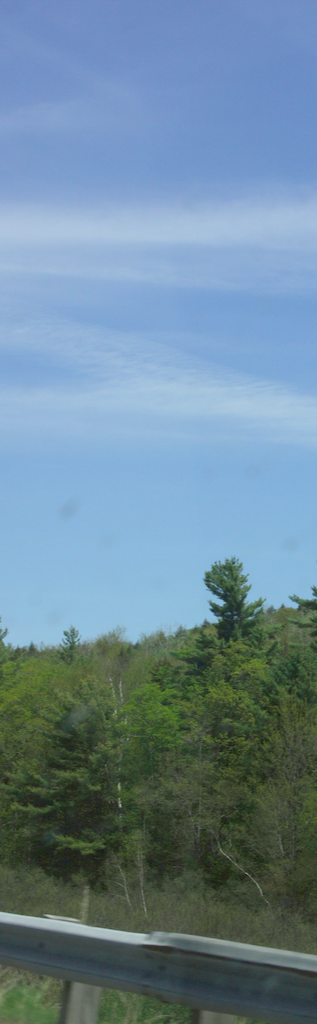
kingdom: Plantae
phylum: Tracheophyta
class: Pinopsida
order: Pinales
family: Pinaceae
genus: Pinus
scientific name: Pinus strobus
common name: Weymouth pine
